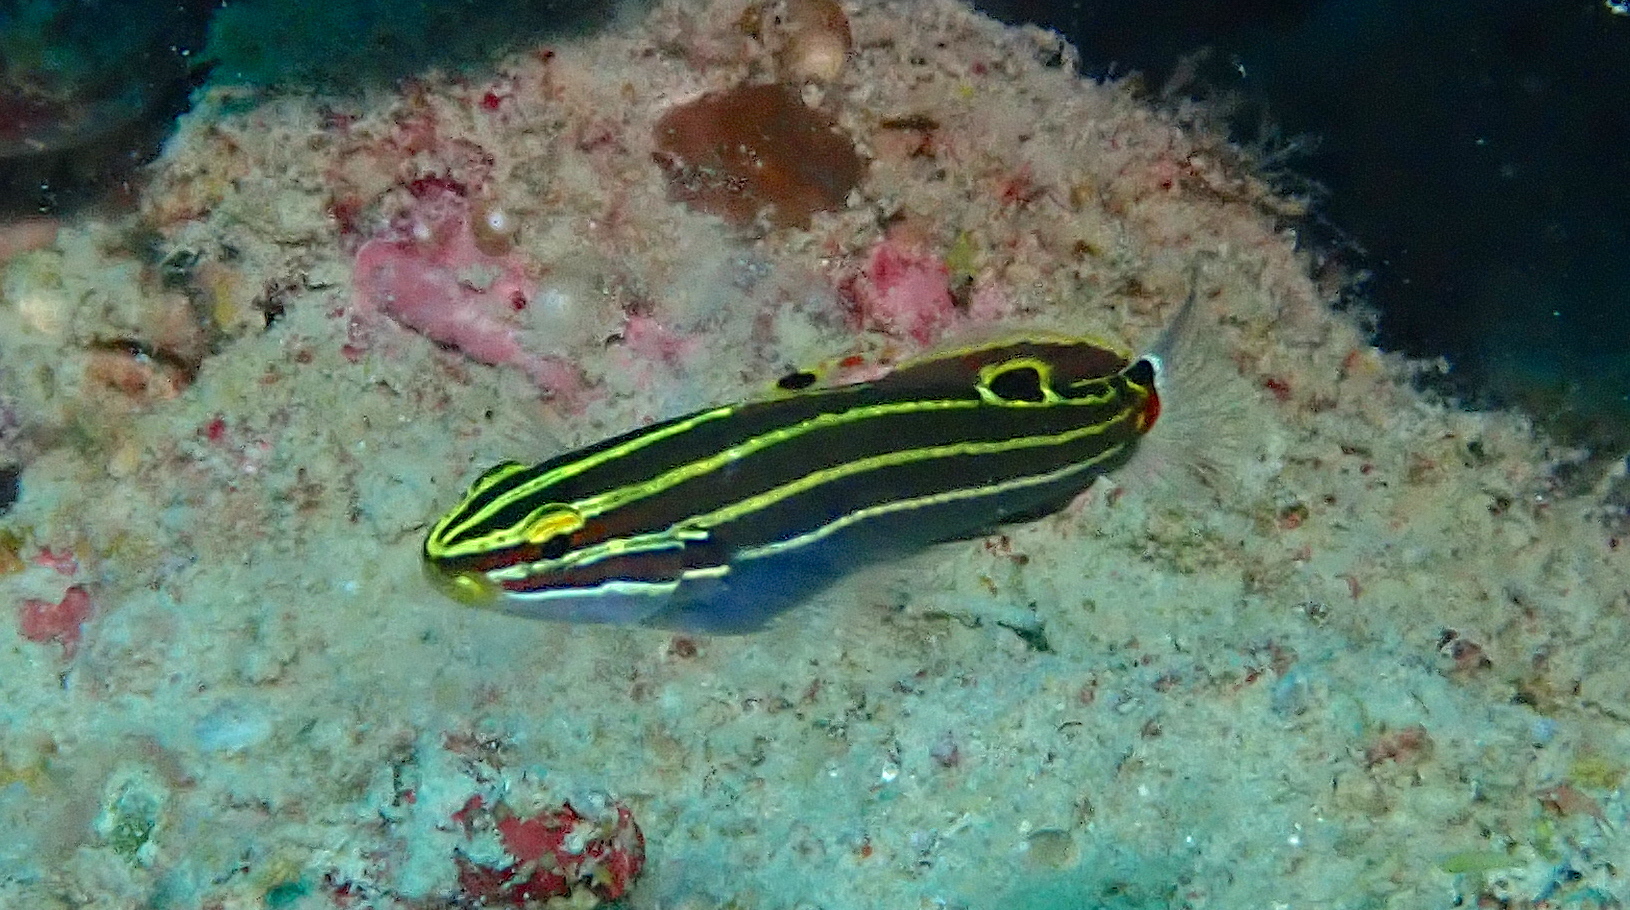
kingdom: Animalia
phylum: Chordata
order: Perciformes
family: Gobiidae
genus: Koumansetta
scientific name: Koumansetta hectori
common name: Hector's goby
